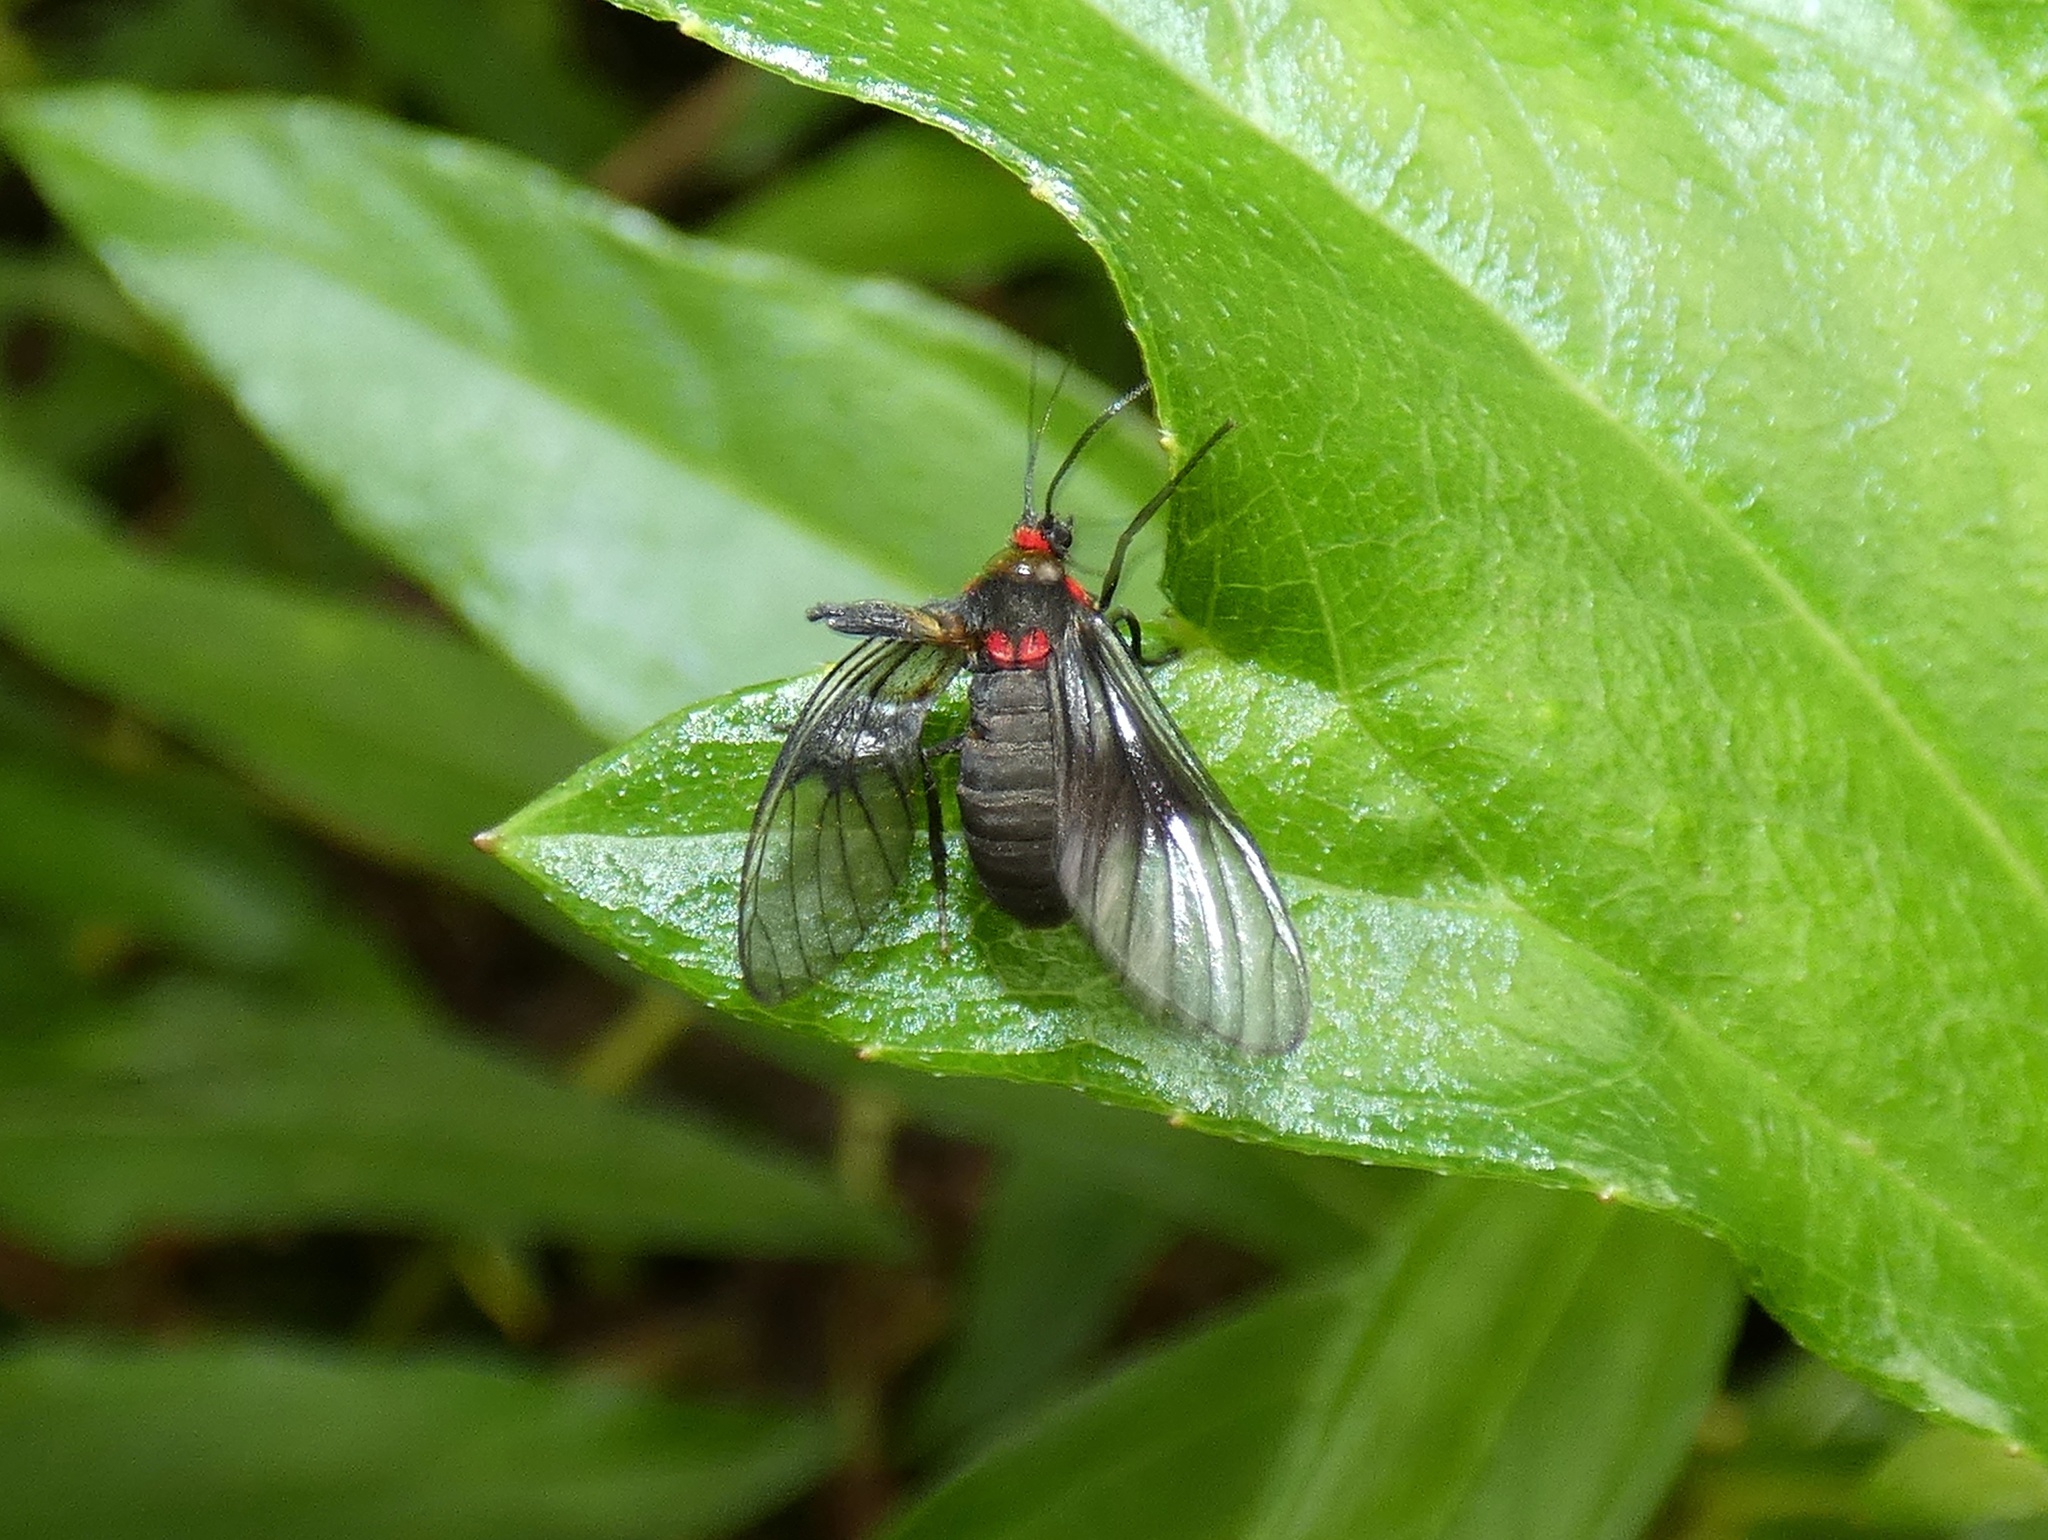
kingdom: Animalia
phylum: Arthropoda
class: Insecta
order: Lepidoptera
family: Erebidae
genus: Pseudohyaleucerea
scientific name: Pseudohyaleucerea Pseudomya melanthoides
